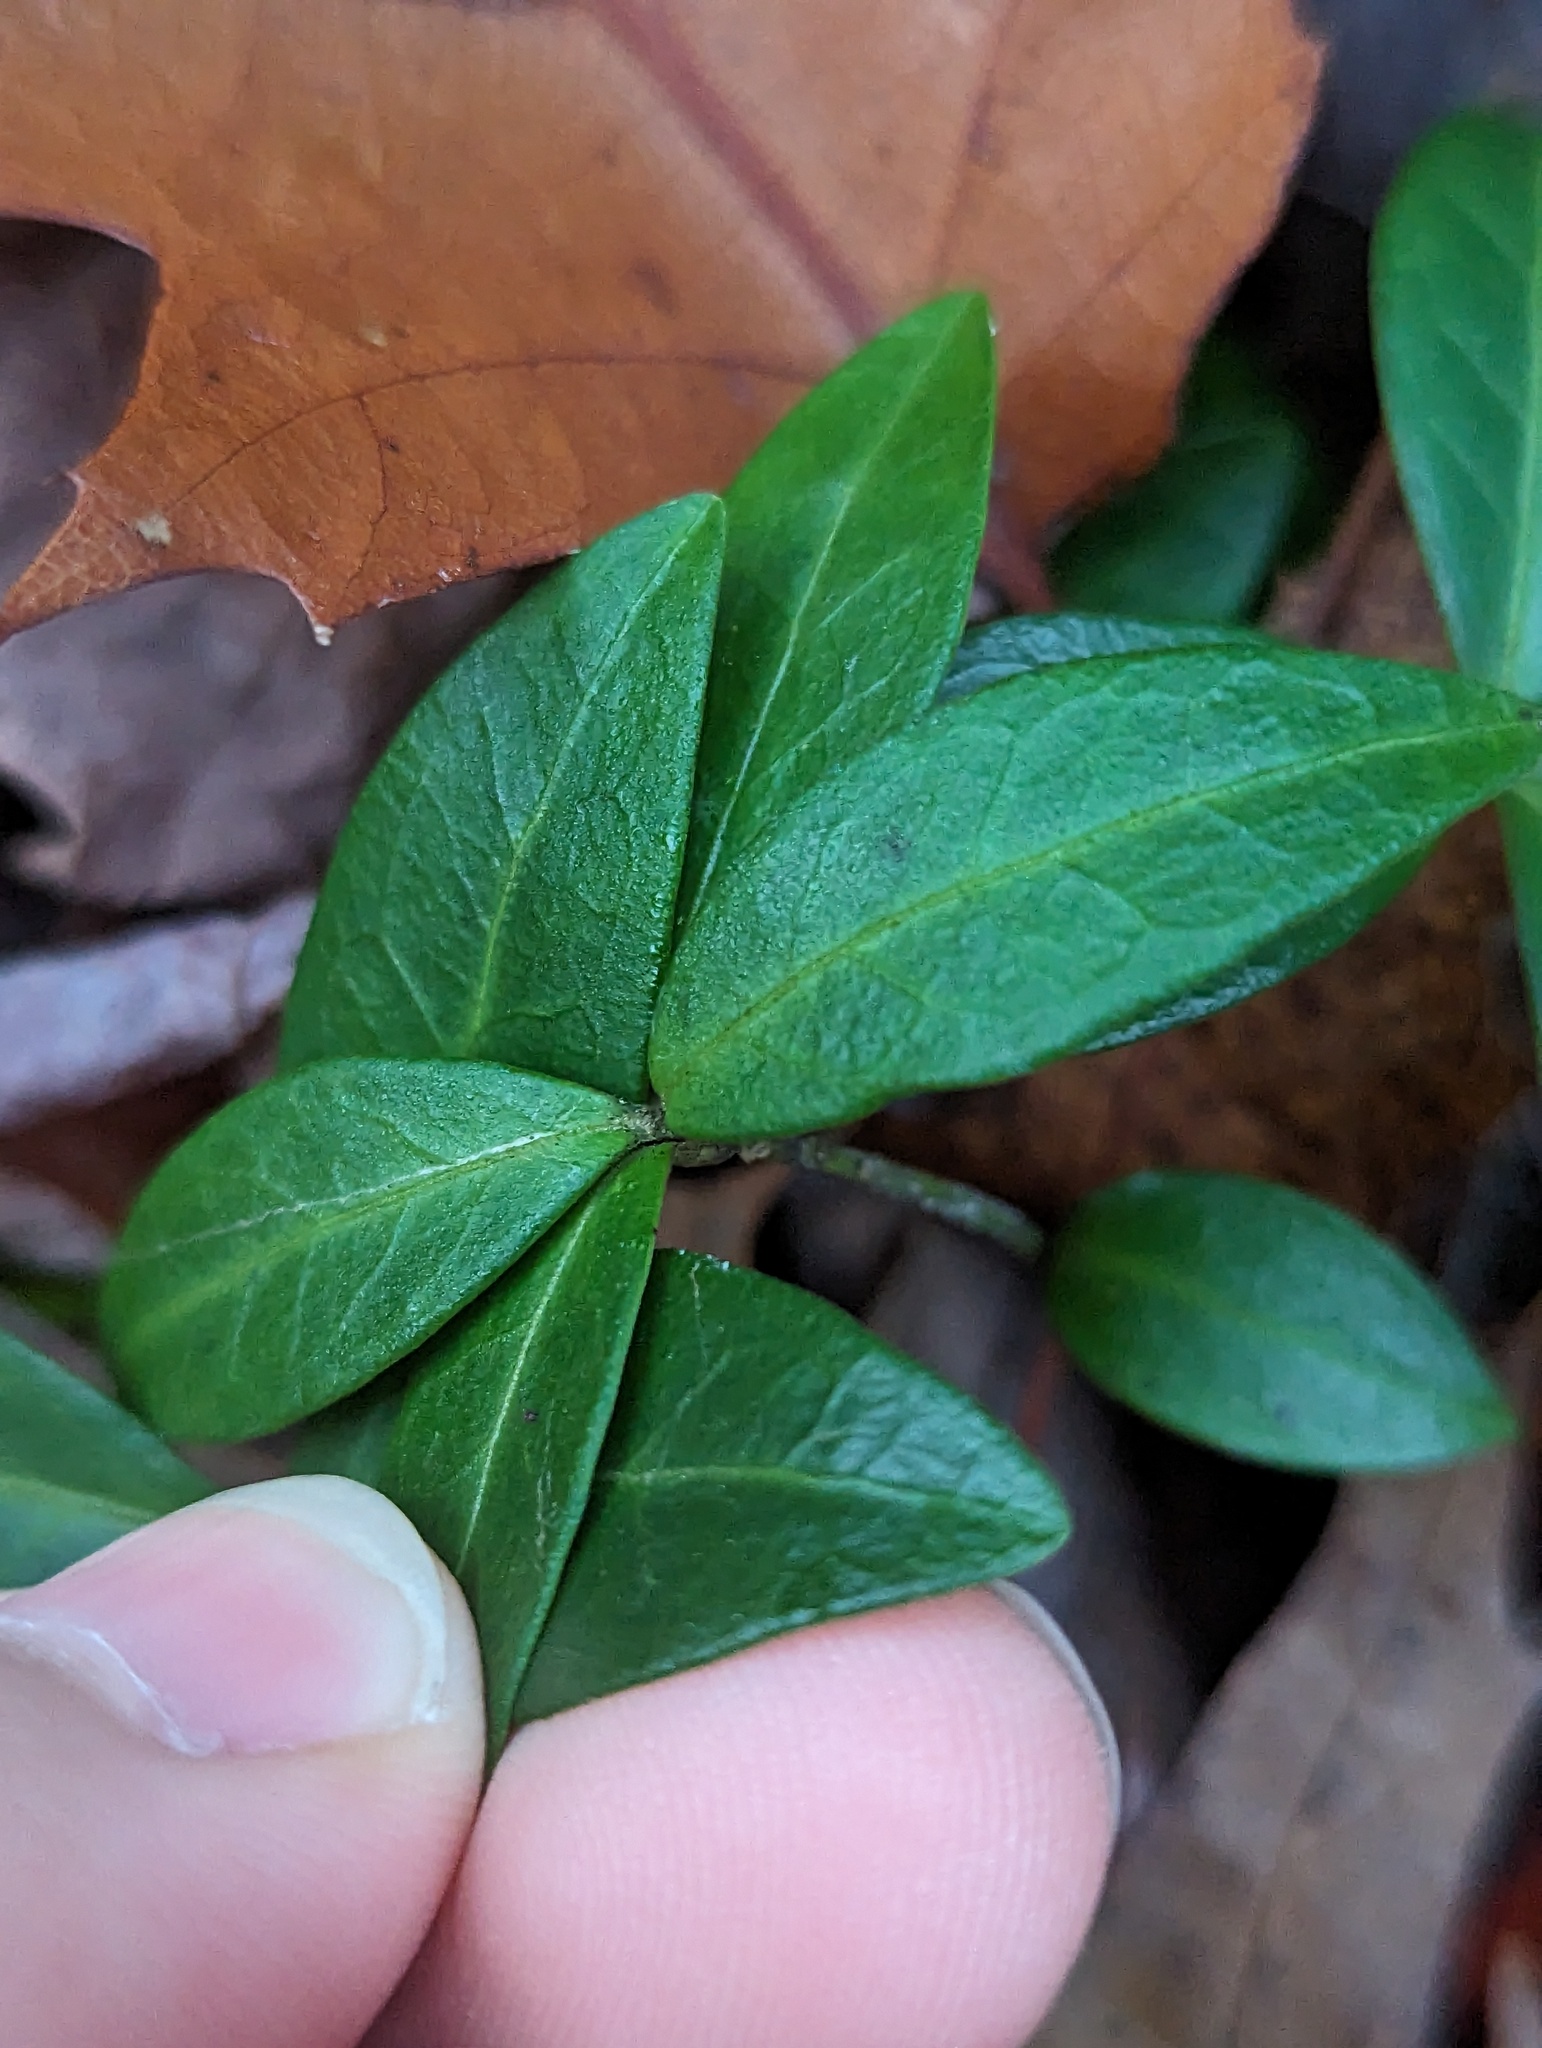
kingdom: Plantae
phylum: Tracheophyta
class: Magnoliopsida
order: Gentianales
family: Apocynaceae
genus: Vinca
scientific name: Vinca minor
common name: Lesser periwinkle
